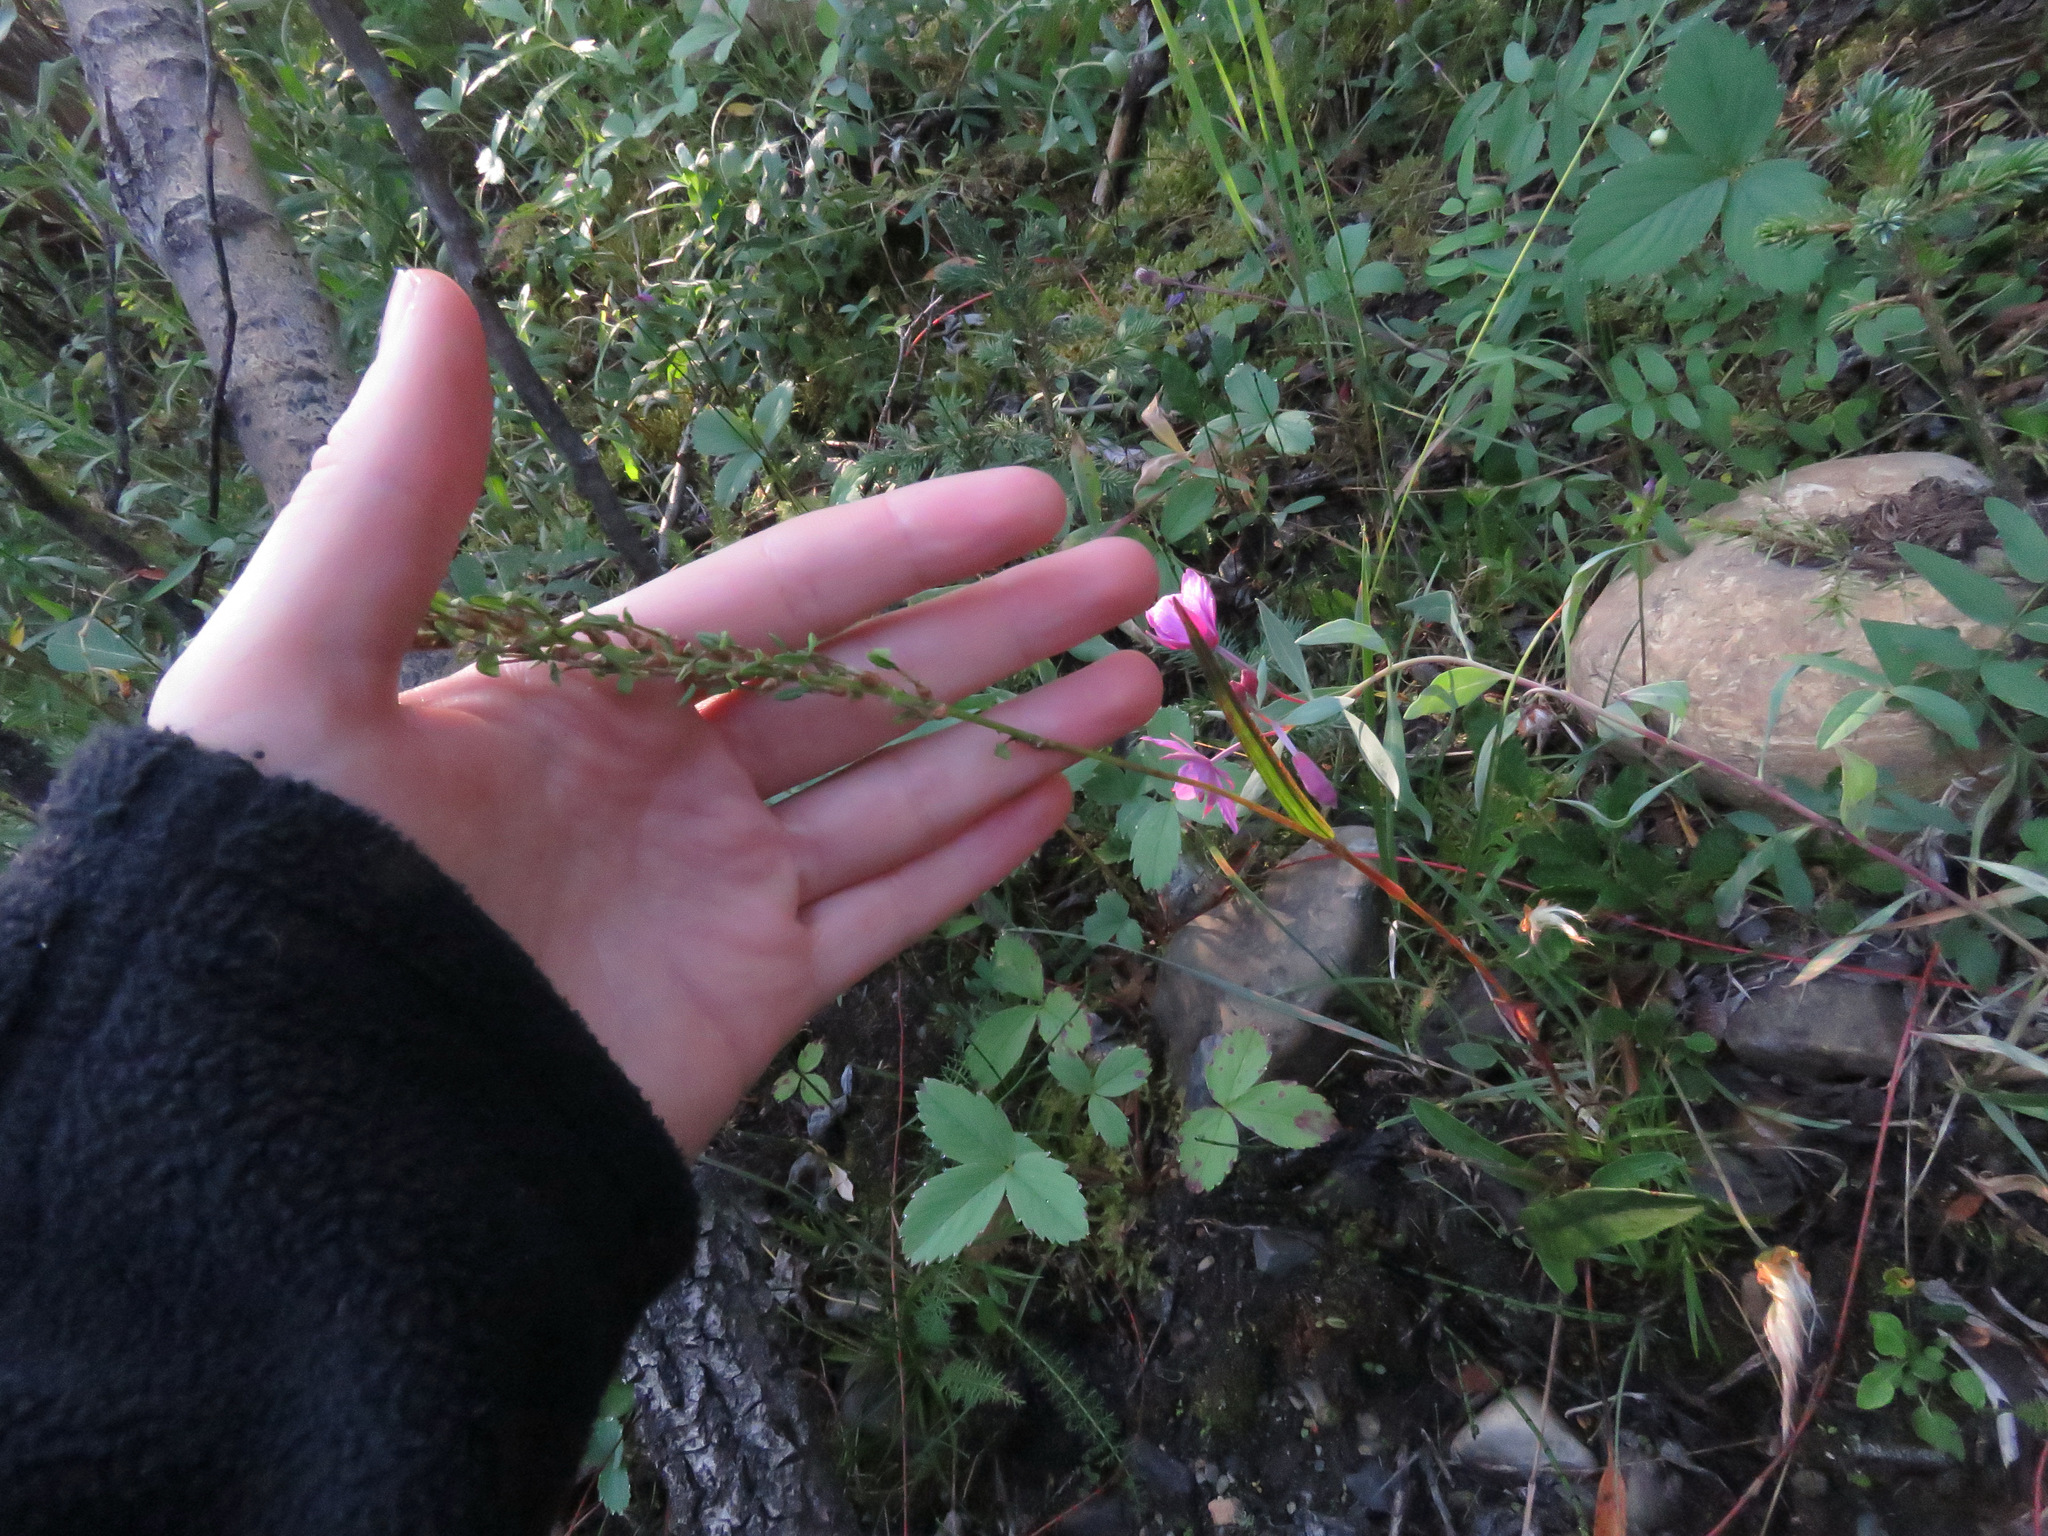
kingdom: Plantae
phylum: Tracheophyta
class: Magnoliopsida
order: Caryophyllales
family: Polygonaceae
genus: Bistorta
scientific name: Bistorta vivipara
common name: Alpine bistort
